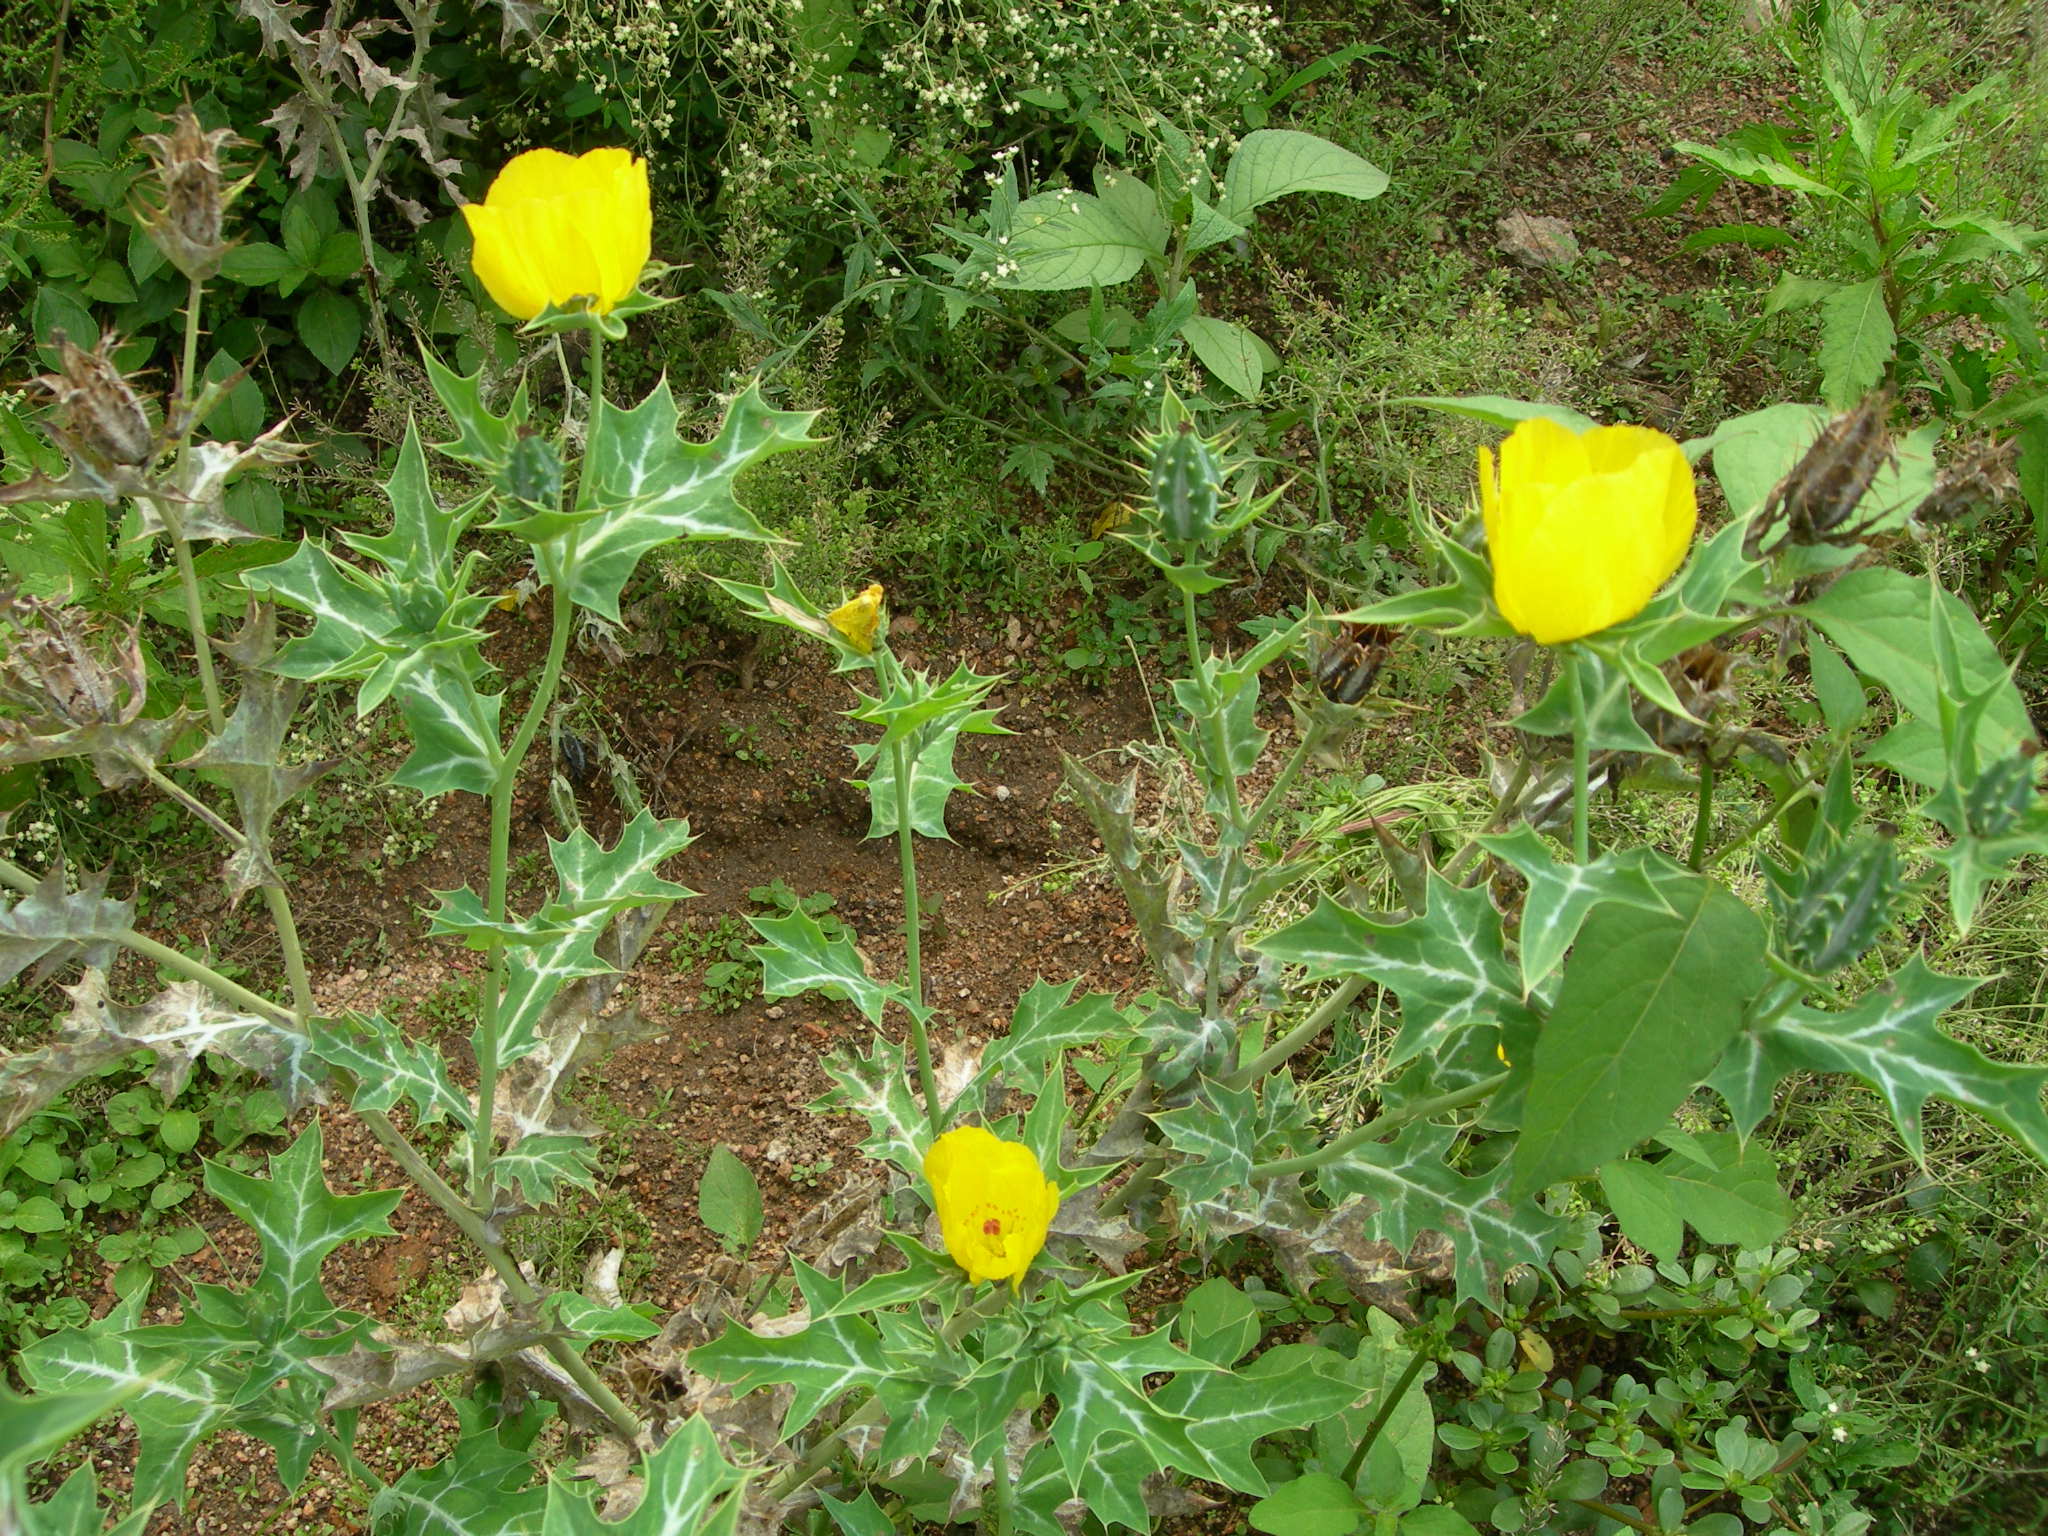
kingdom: Plantae
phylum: Tracheophyta
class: Magnoliopsida
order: Ranunculales
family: Papaveraceae
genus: Argemone
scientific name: Argemone mexicana
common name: Mexican poppy
